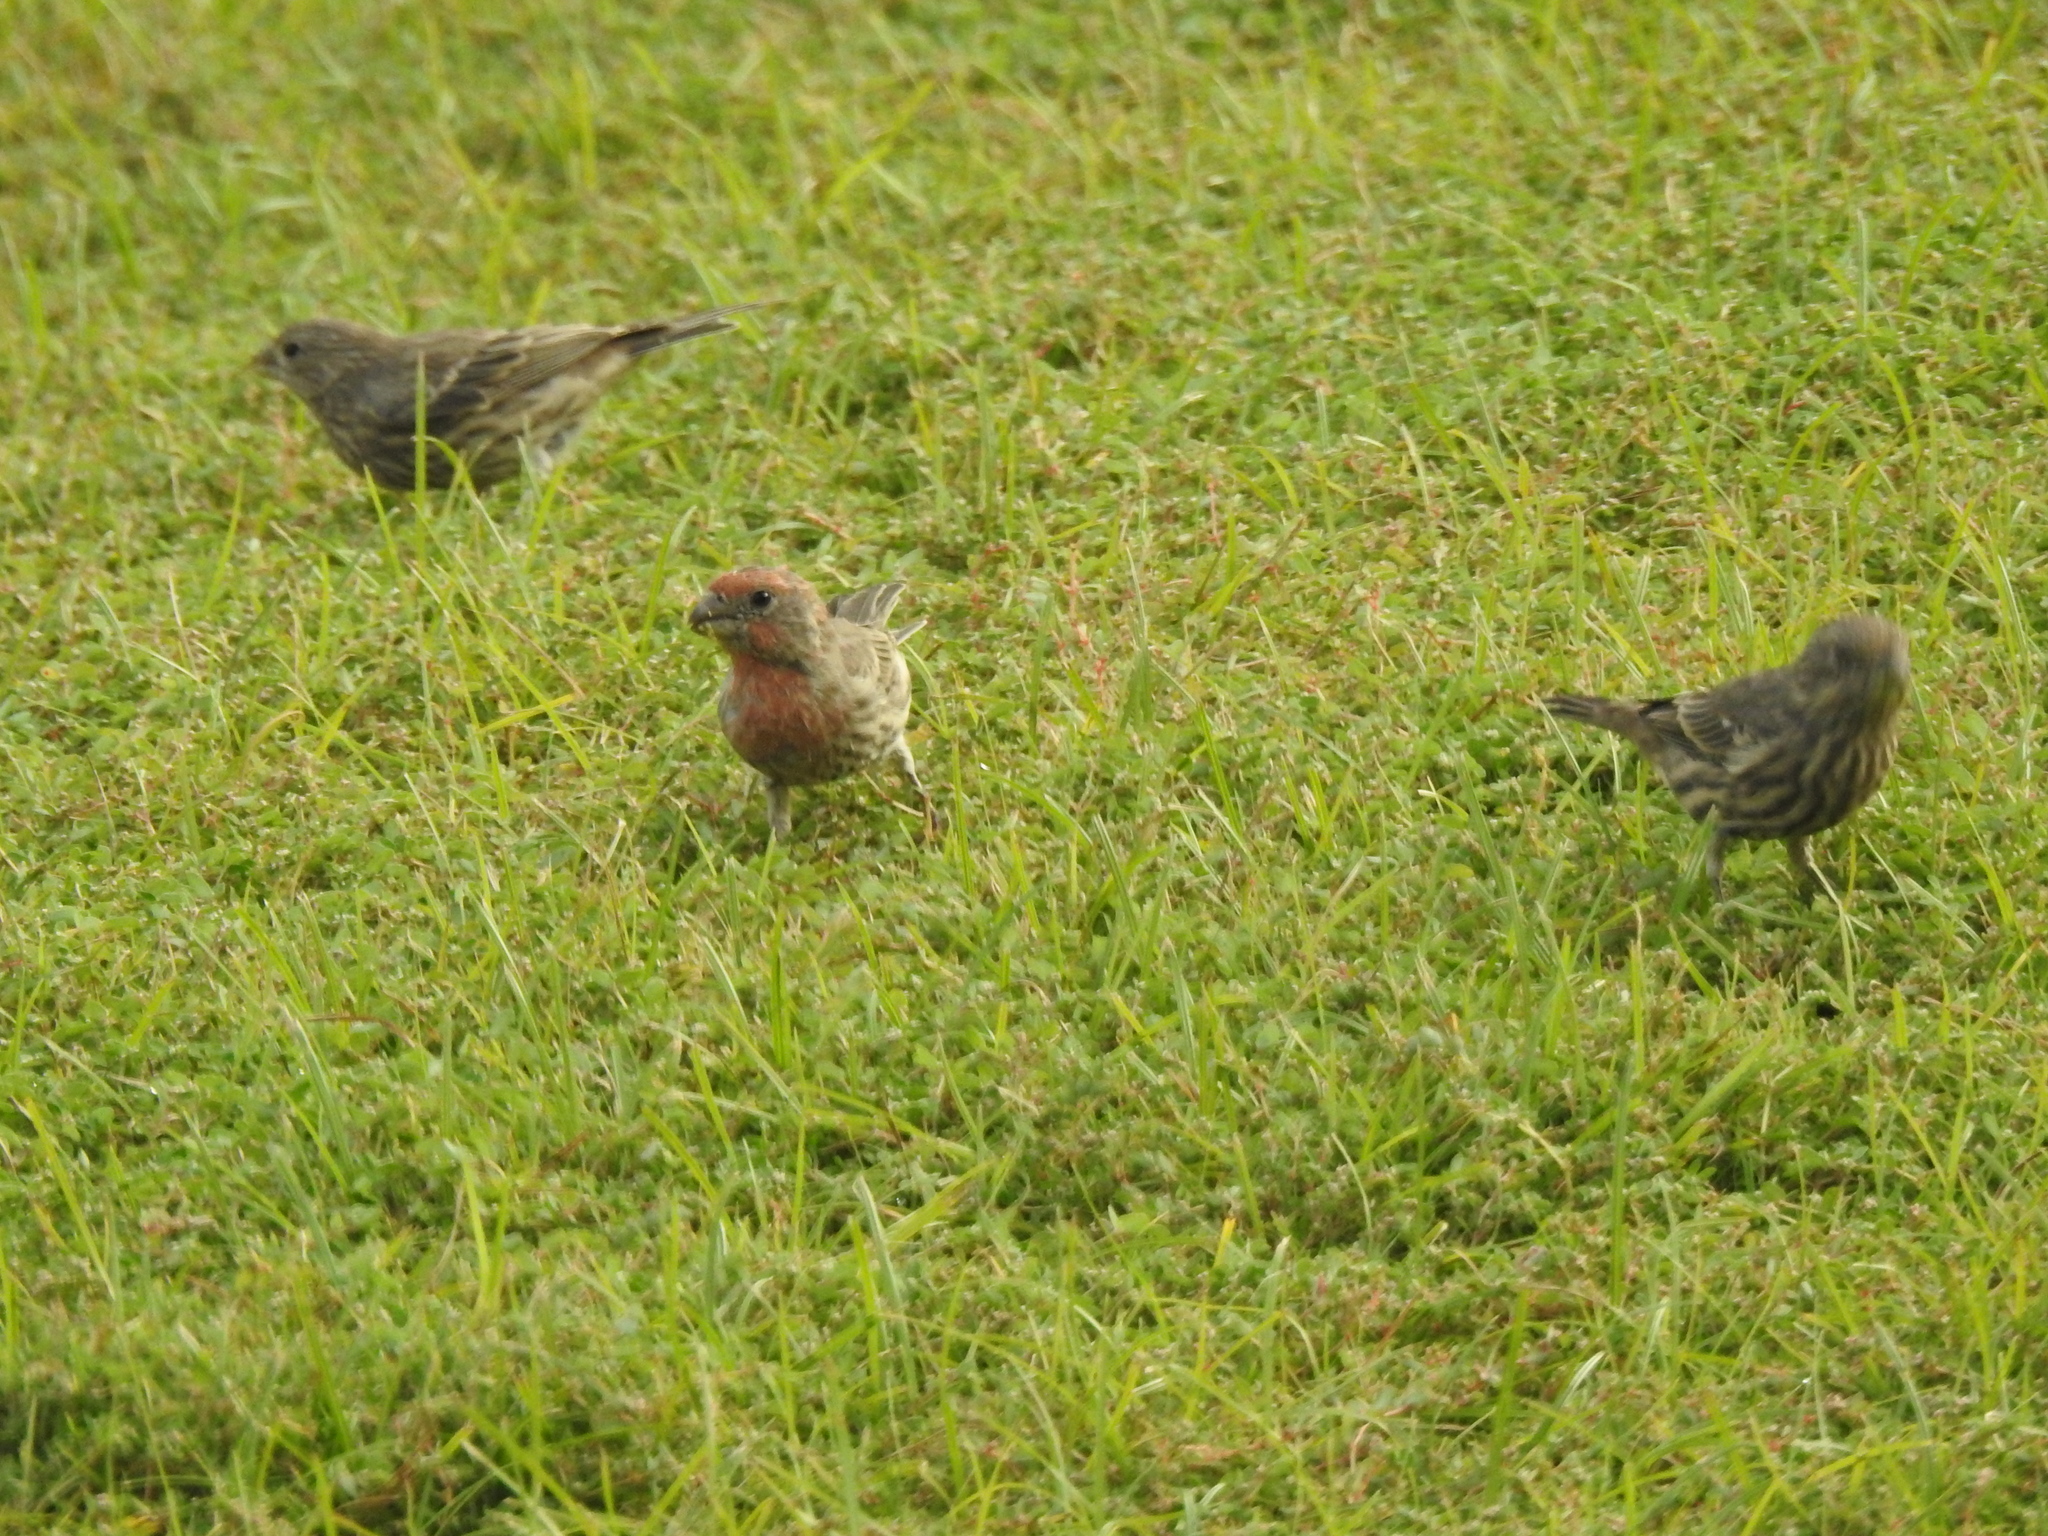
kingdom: Animalia
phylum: Chordata
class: Aves
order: Passeriformes
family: Fringillidae
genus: Haemorhous
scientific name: Haemorhous mexicanus
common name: House finch
